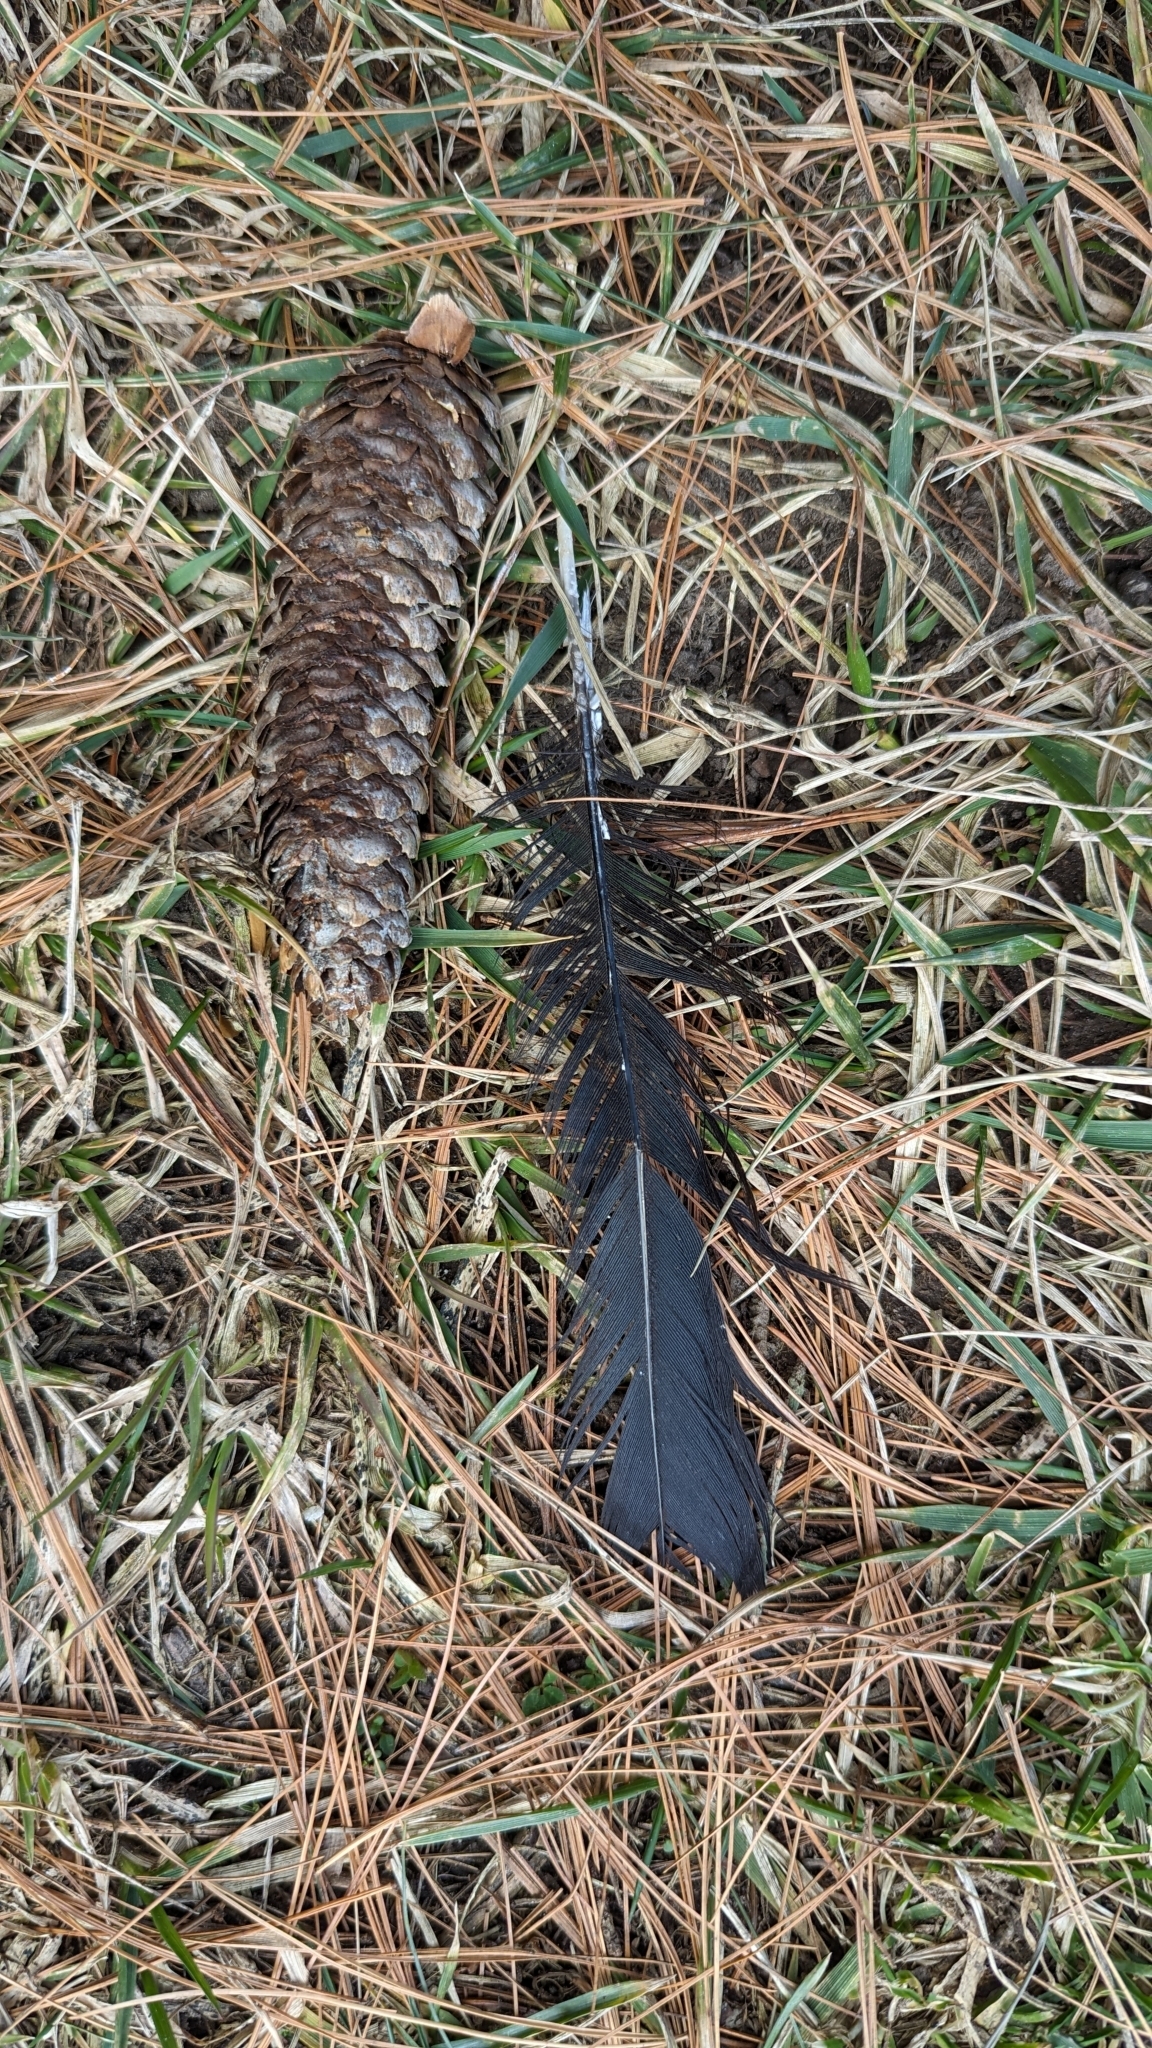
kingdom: Animalia
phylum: Chordata
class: Aves
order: Passeriformes
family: Corvidae
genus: Corvus
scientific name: Corvus brachyrhynchos
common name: American crow
